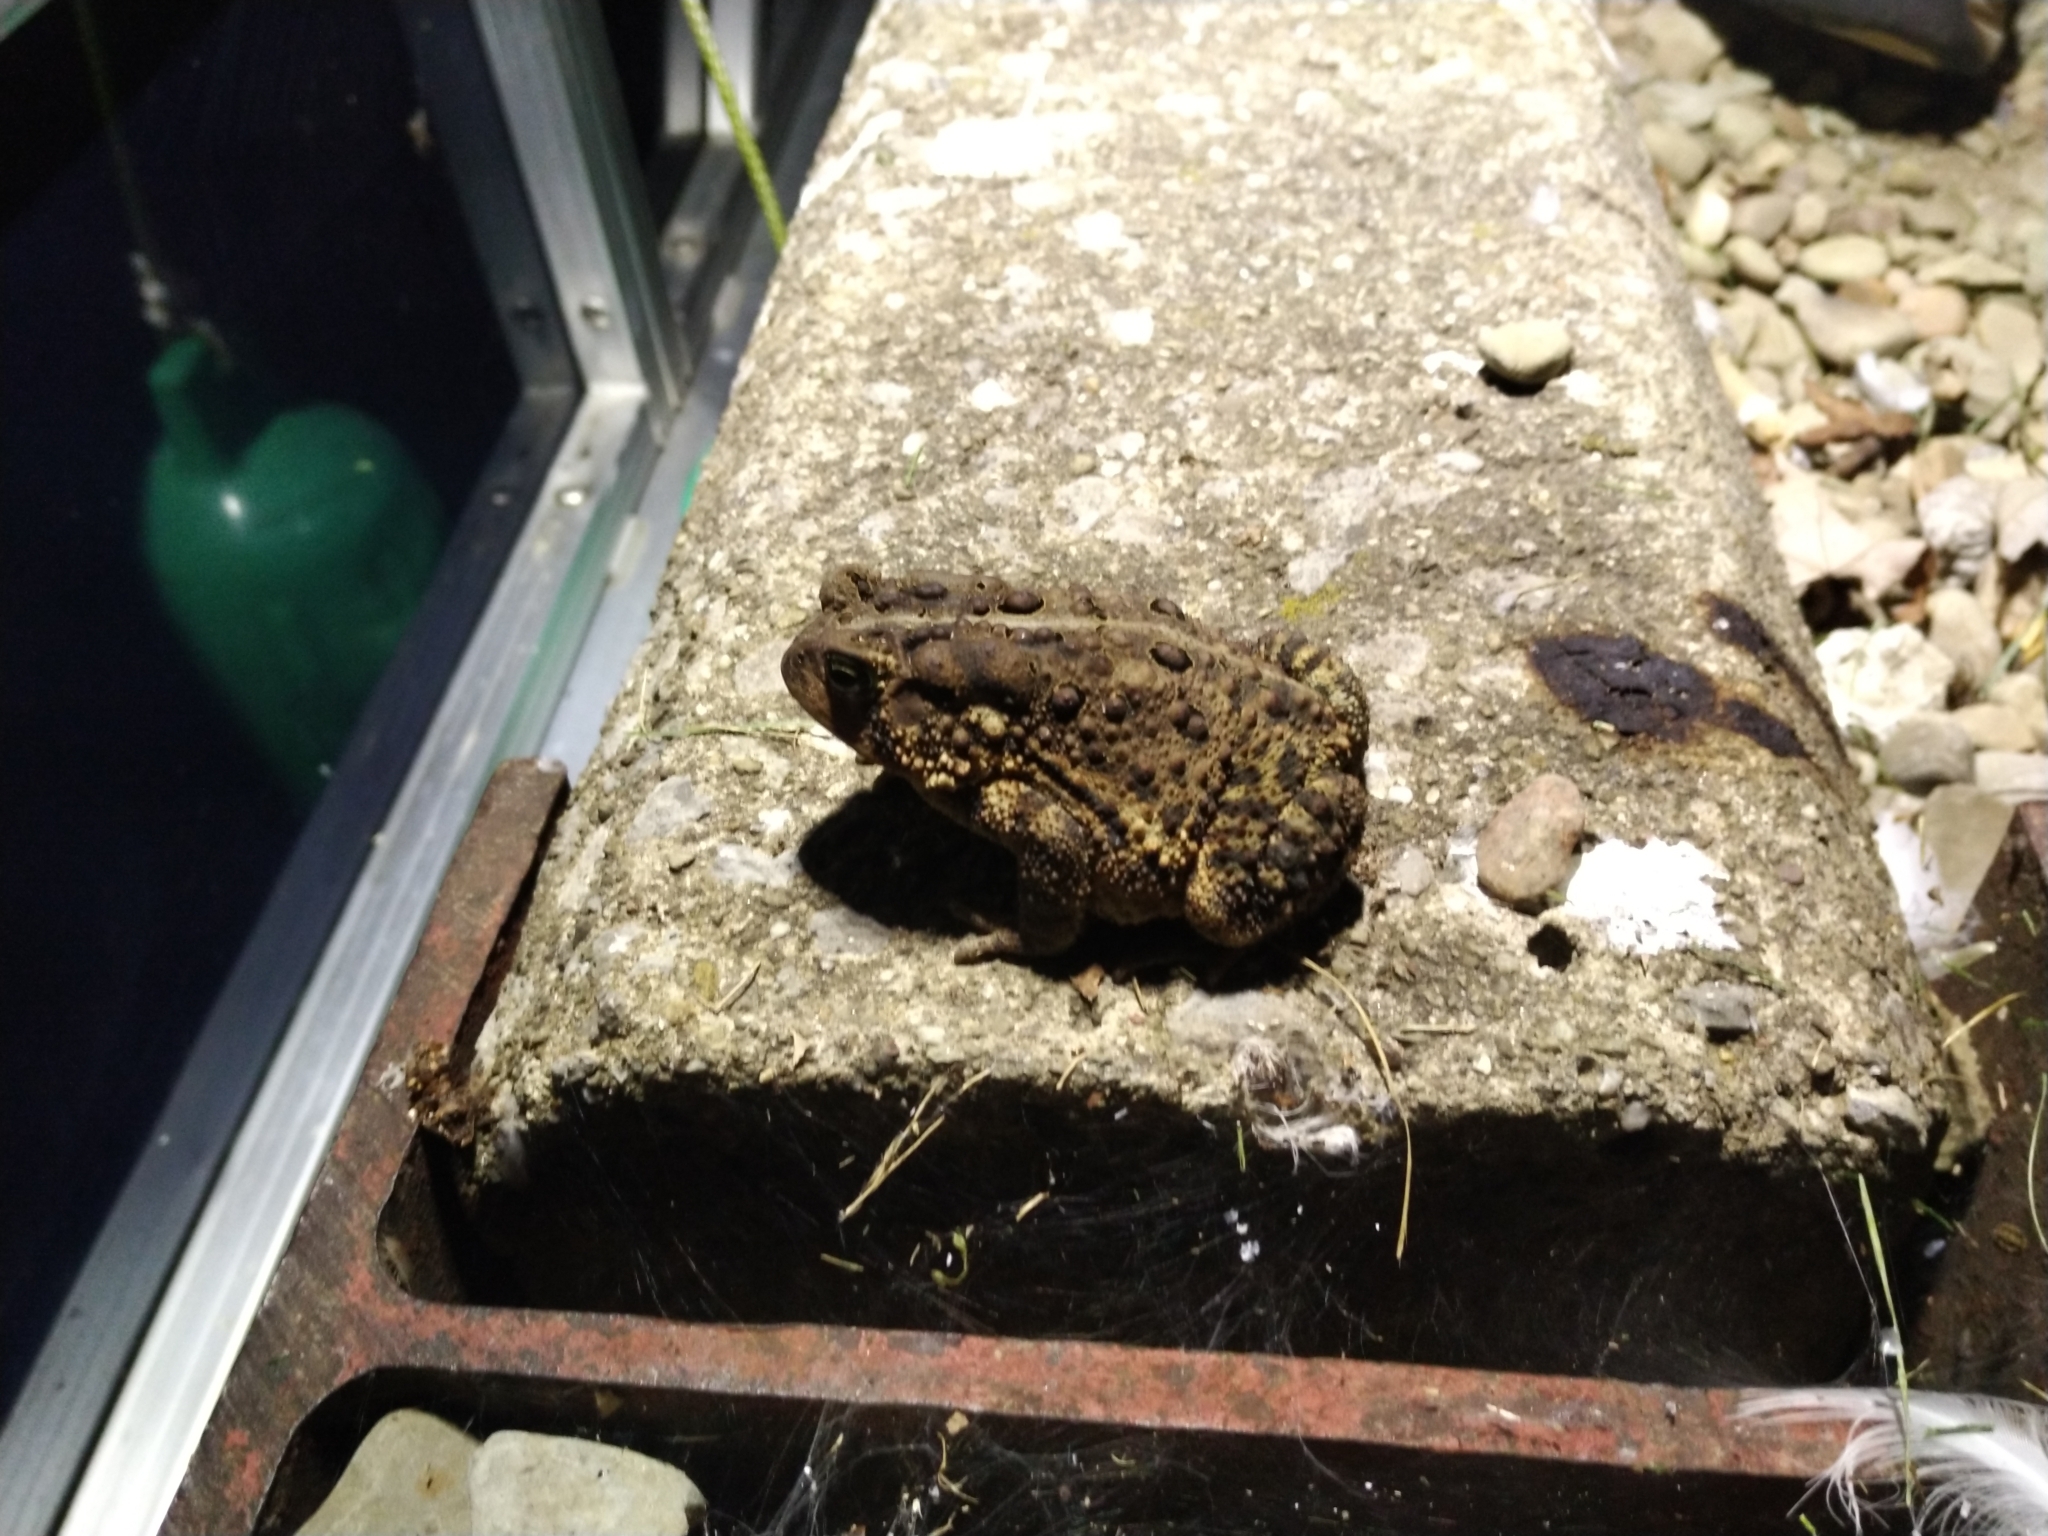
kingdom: Animalia
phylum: Chordata
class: Amphibia
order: Anura
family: Bufonidae
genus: Anaxyrus
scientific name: Anaxyrus americanus
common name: American toad
